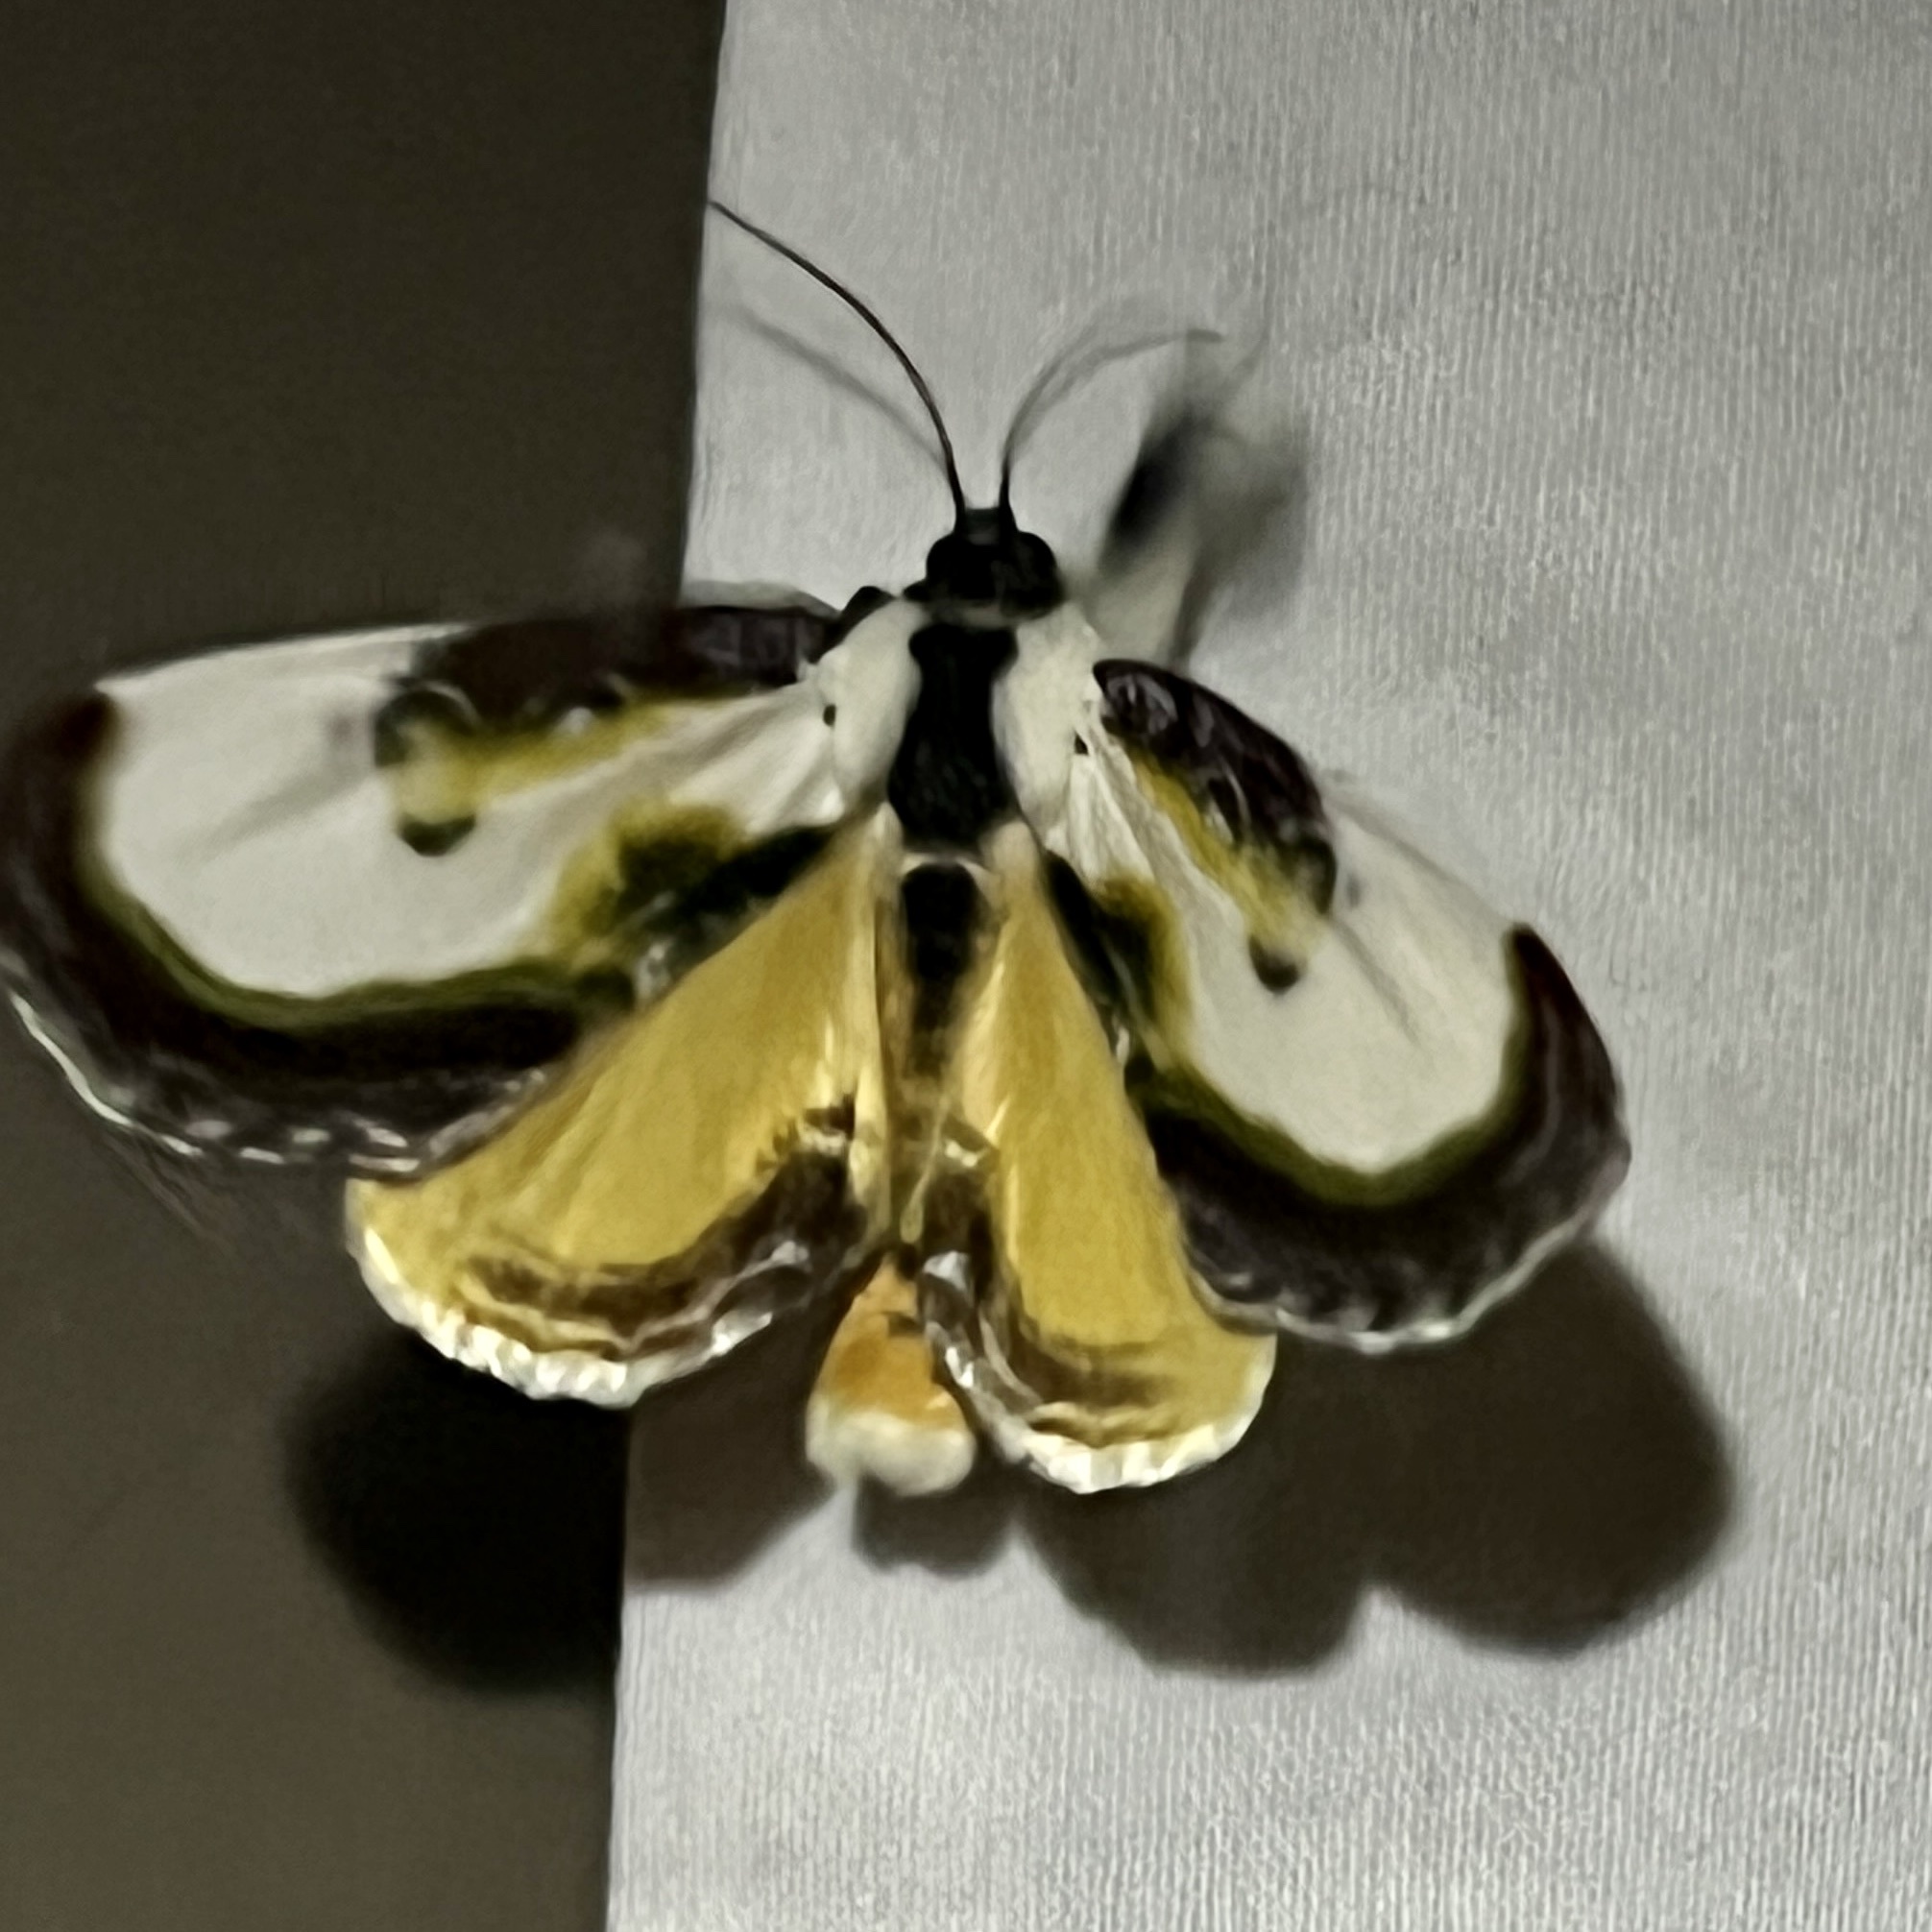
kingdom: Animalia
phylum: Arthropoda
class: Insecta
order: Lepidoptera
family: Noctuidae
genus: Eudryas
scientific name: Eudryas grata
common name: Beautiful wood-nymph
